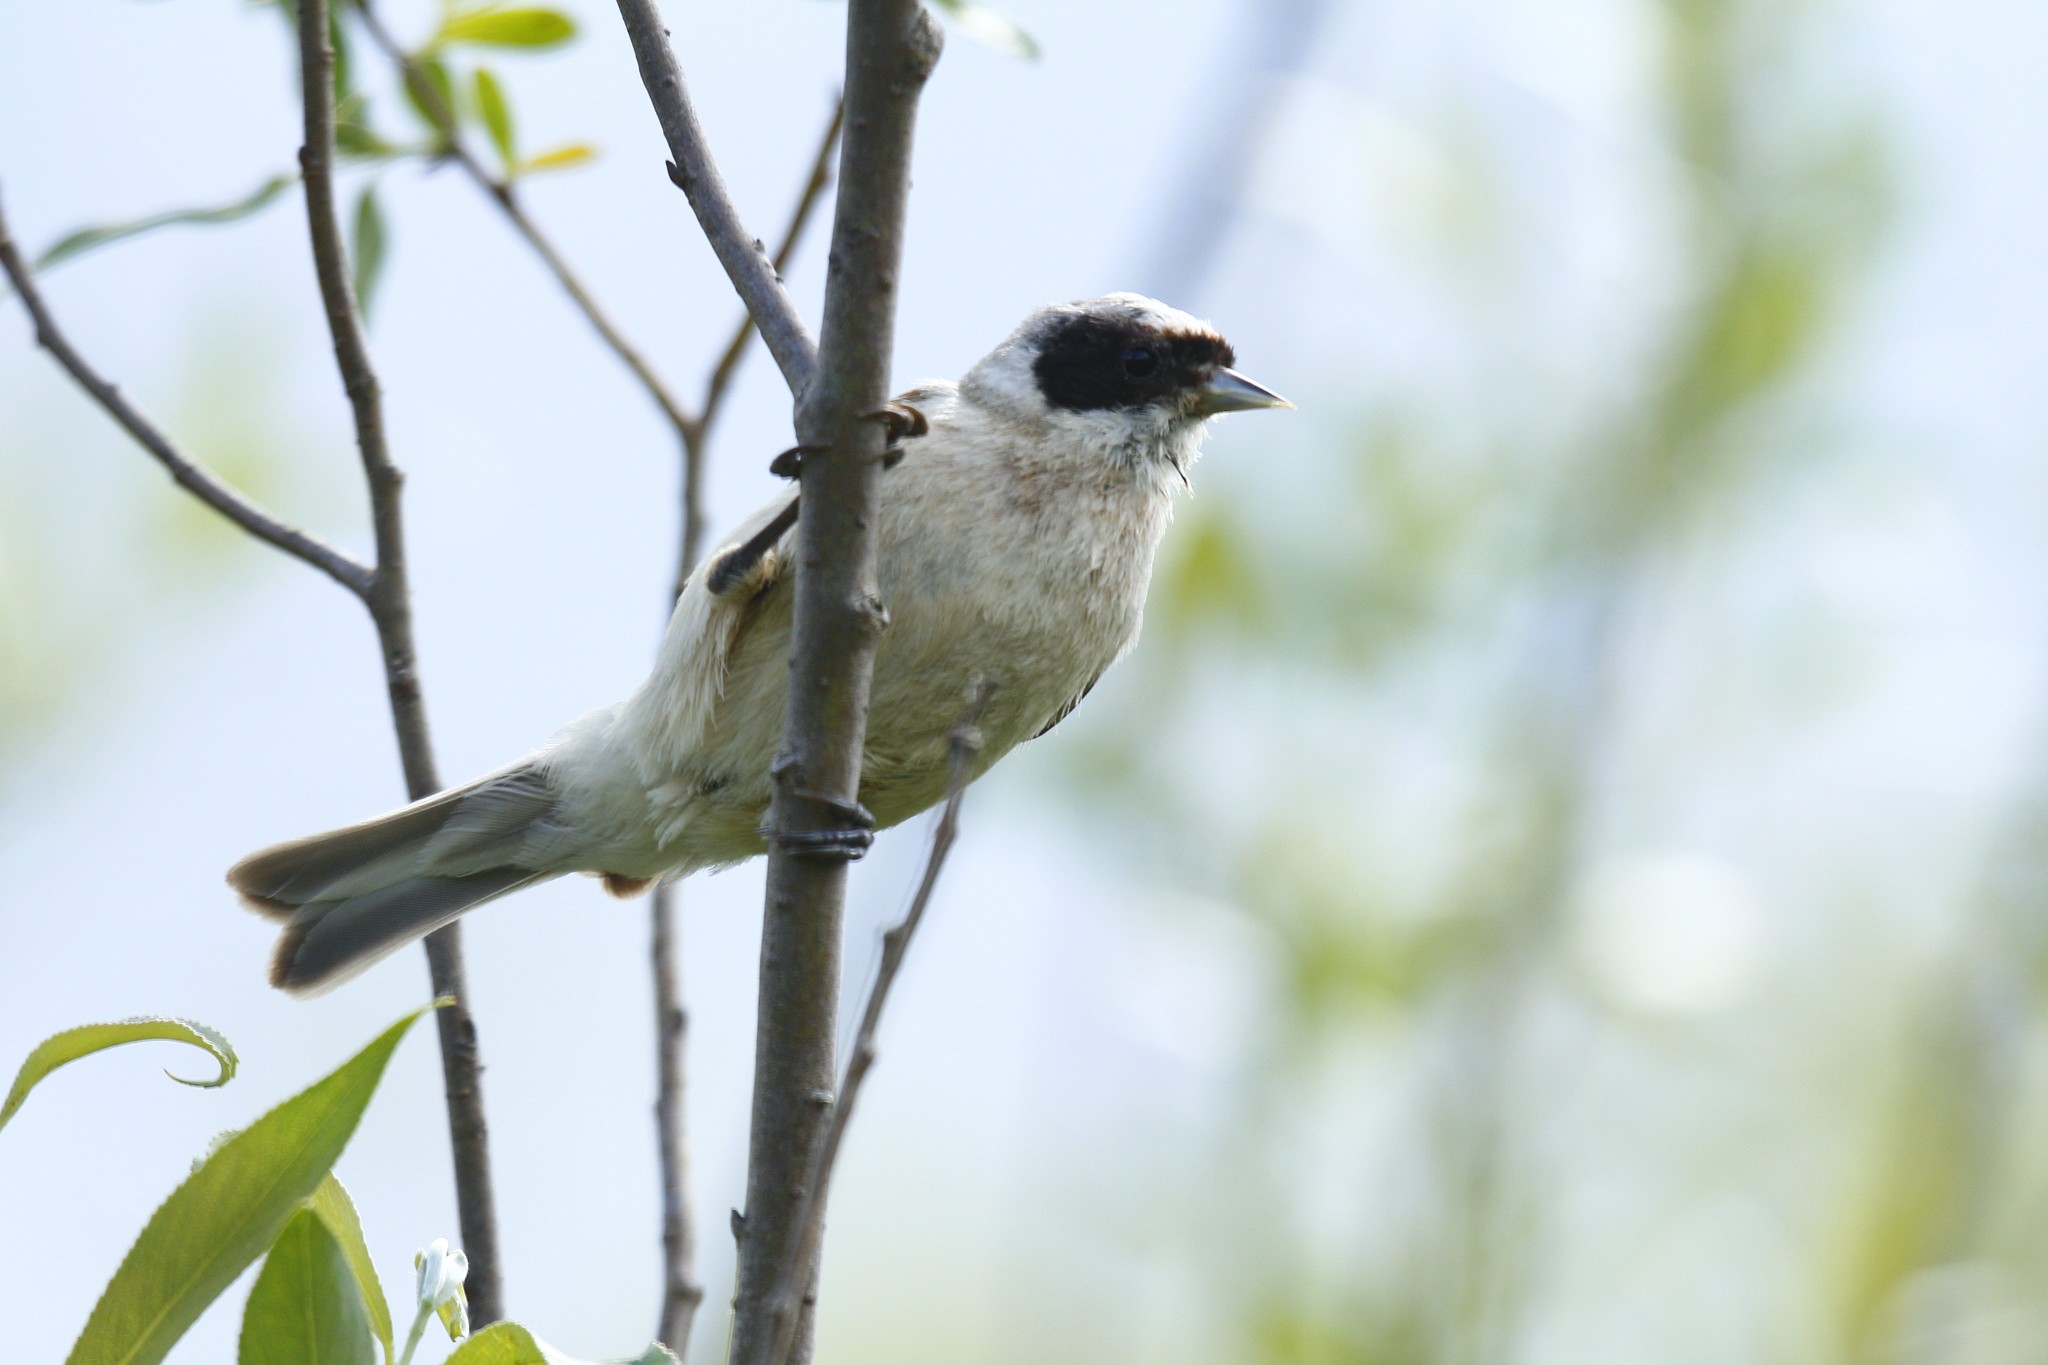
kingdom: Animalia
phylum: Chordata
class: Aves
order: Passeriformes
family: Remizidae
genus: Remiz
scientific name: Remiz pendulinus
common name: Eurasian penduline tit
